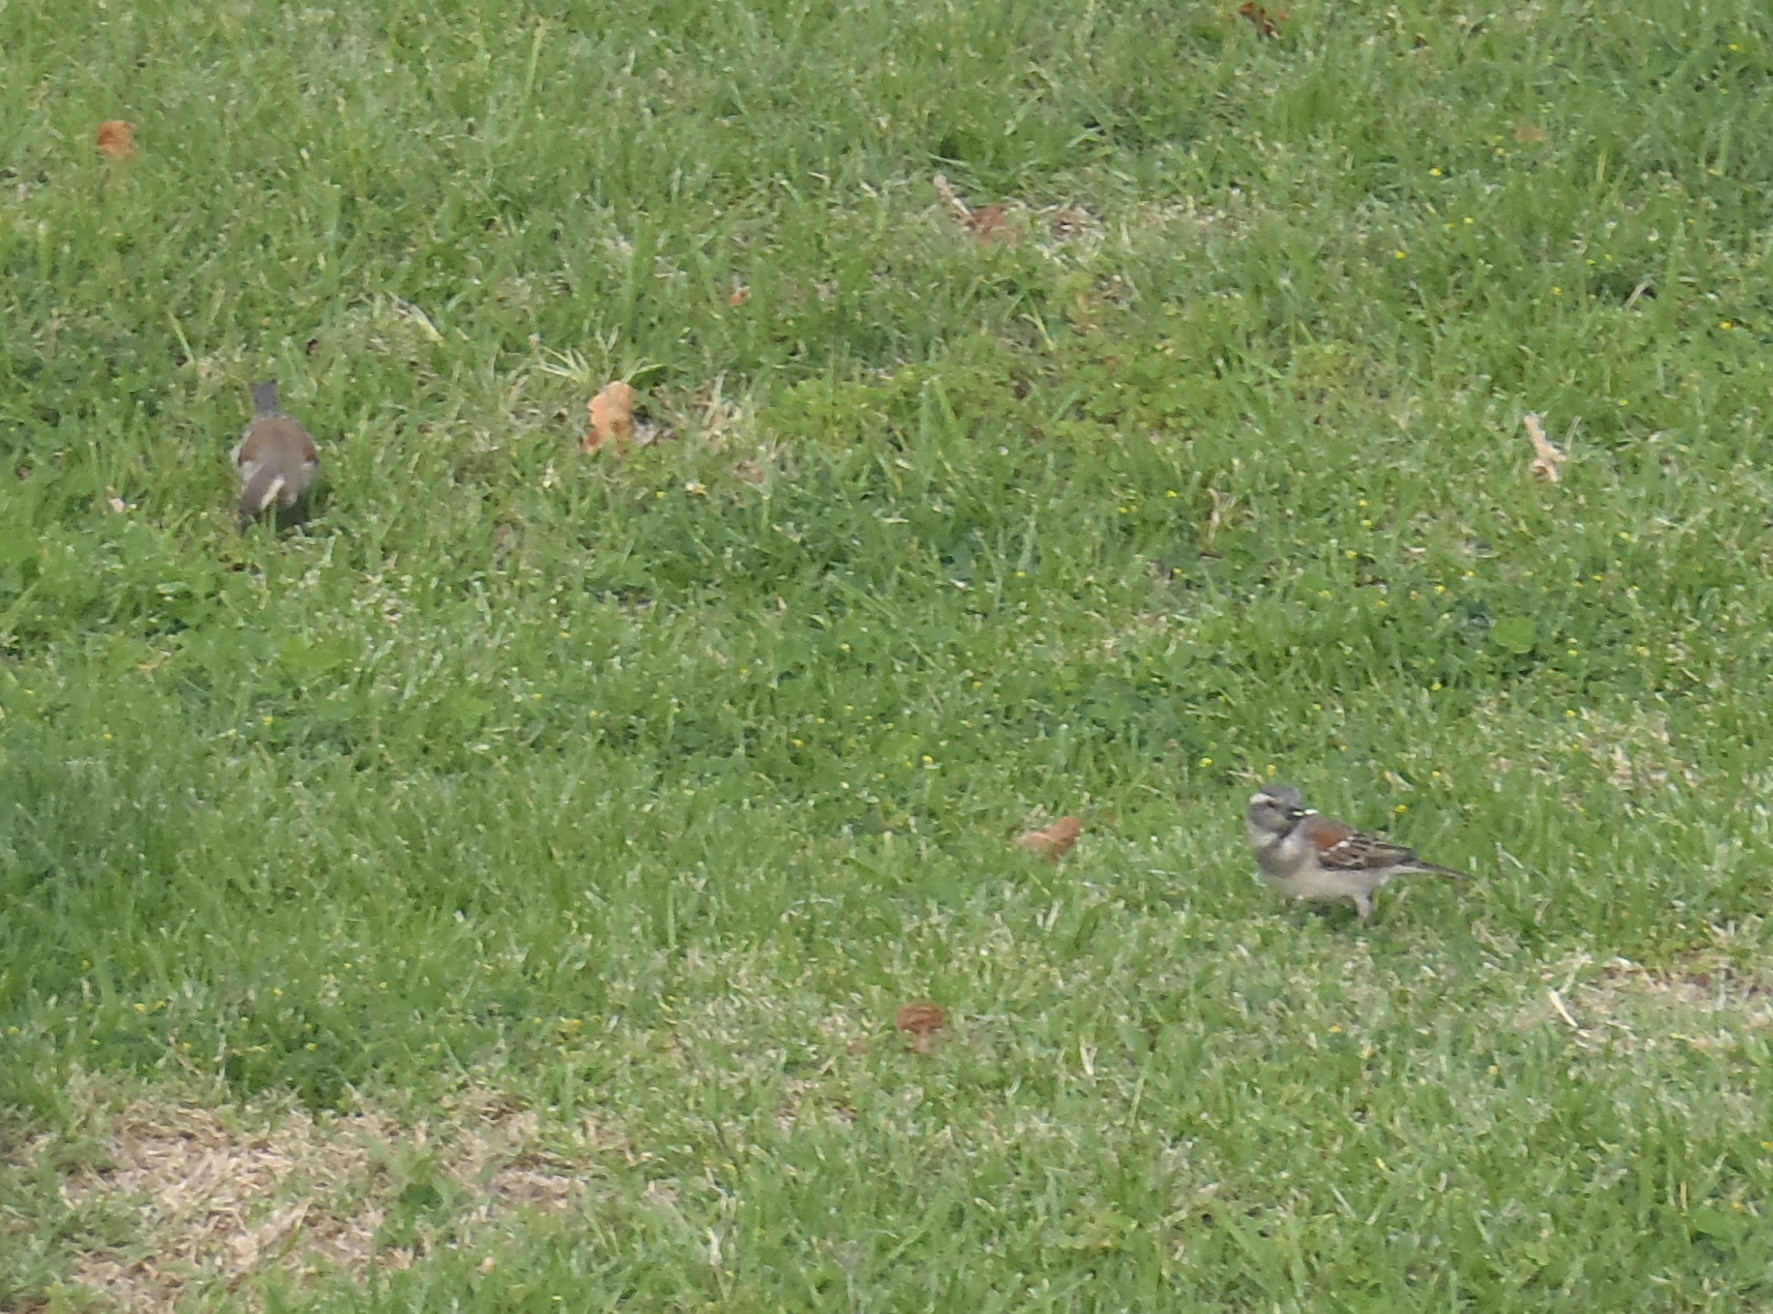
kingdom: Animalia
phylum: Chordata
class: Aves
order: Passeriformes
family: Passeridae
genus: Passer
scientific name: Passer melanurus
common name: Cape sparrow
